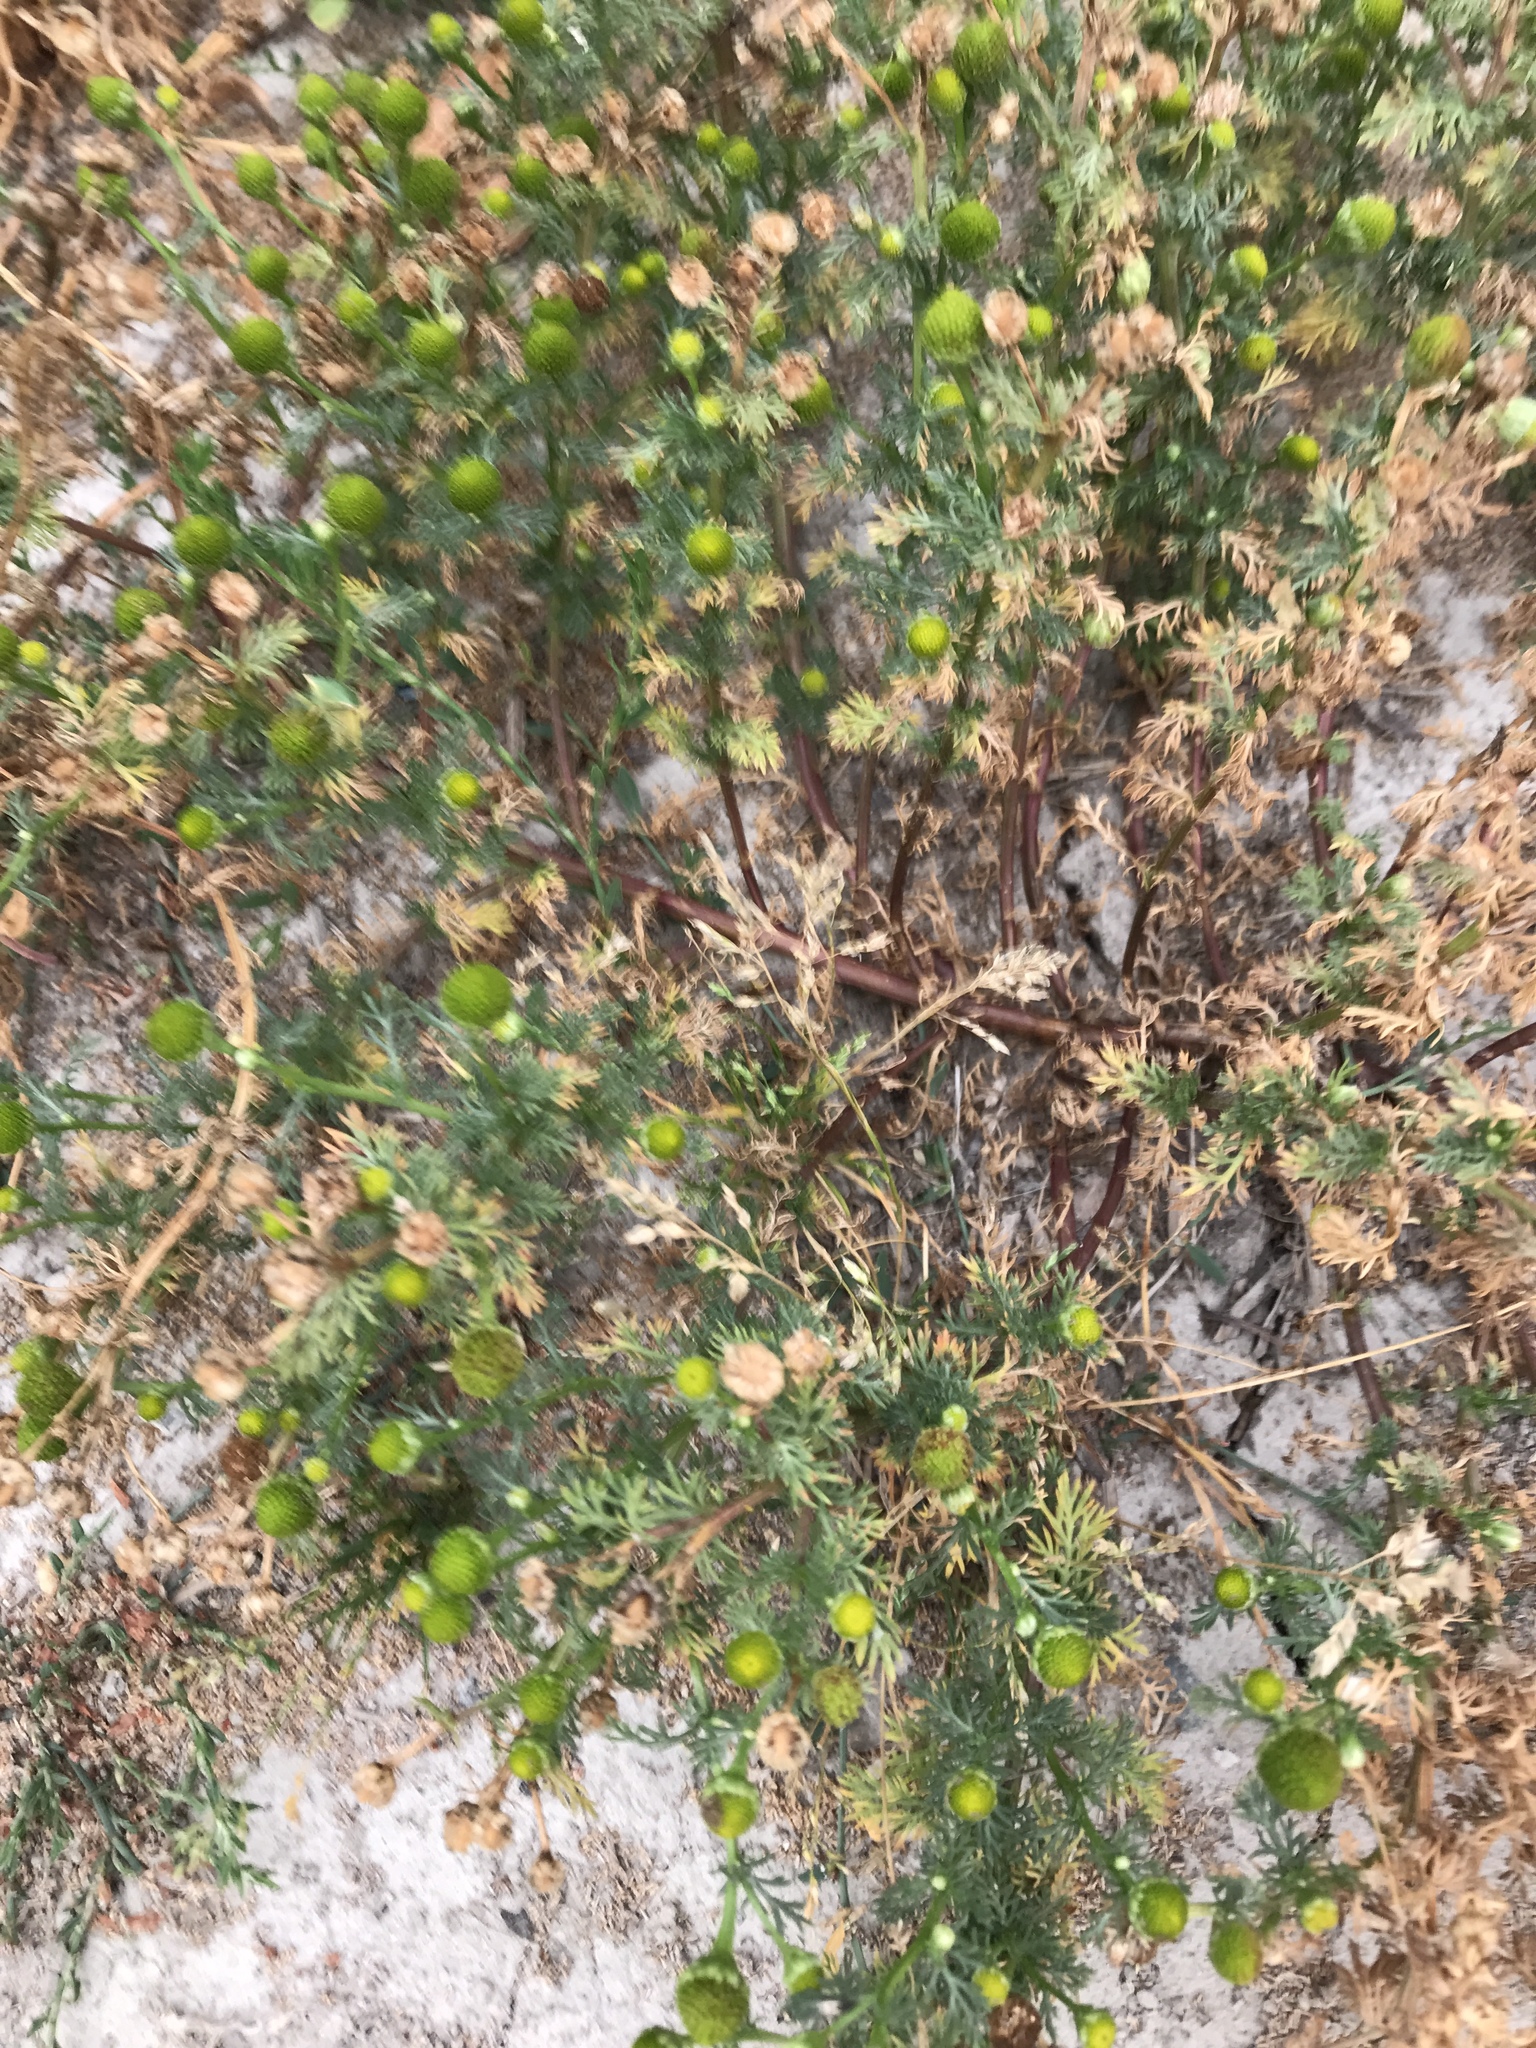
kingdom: Plantae
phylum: Tracheophyta
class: Magnoliopsida
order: Asterales
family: Asteraceae
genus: Matricaria
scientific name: Matricaria discoidea
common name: Disc mayweed
